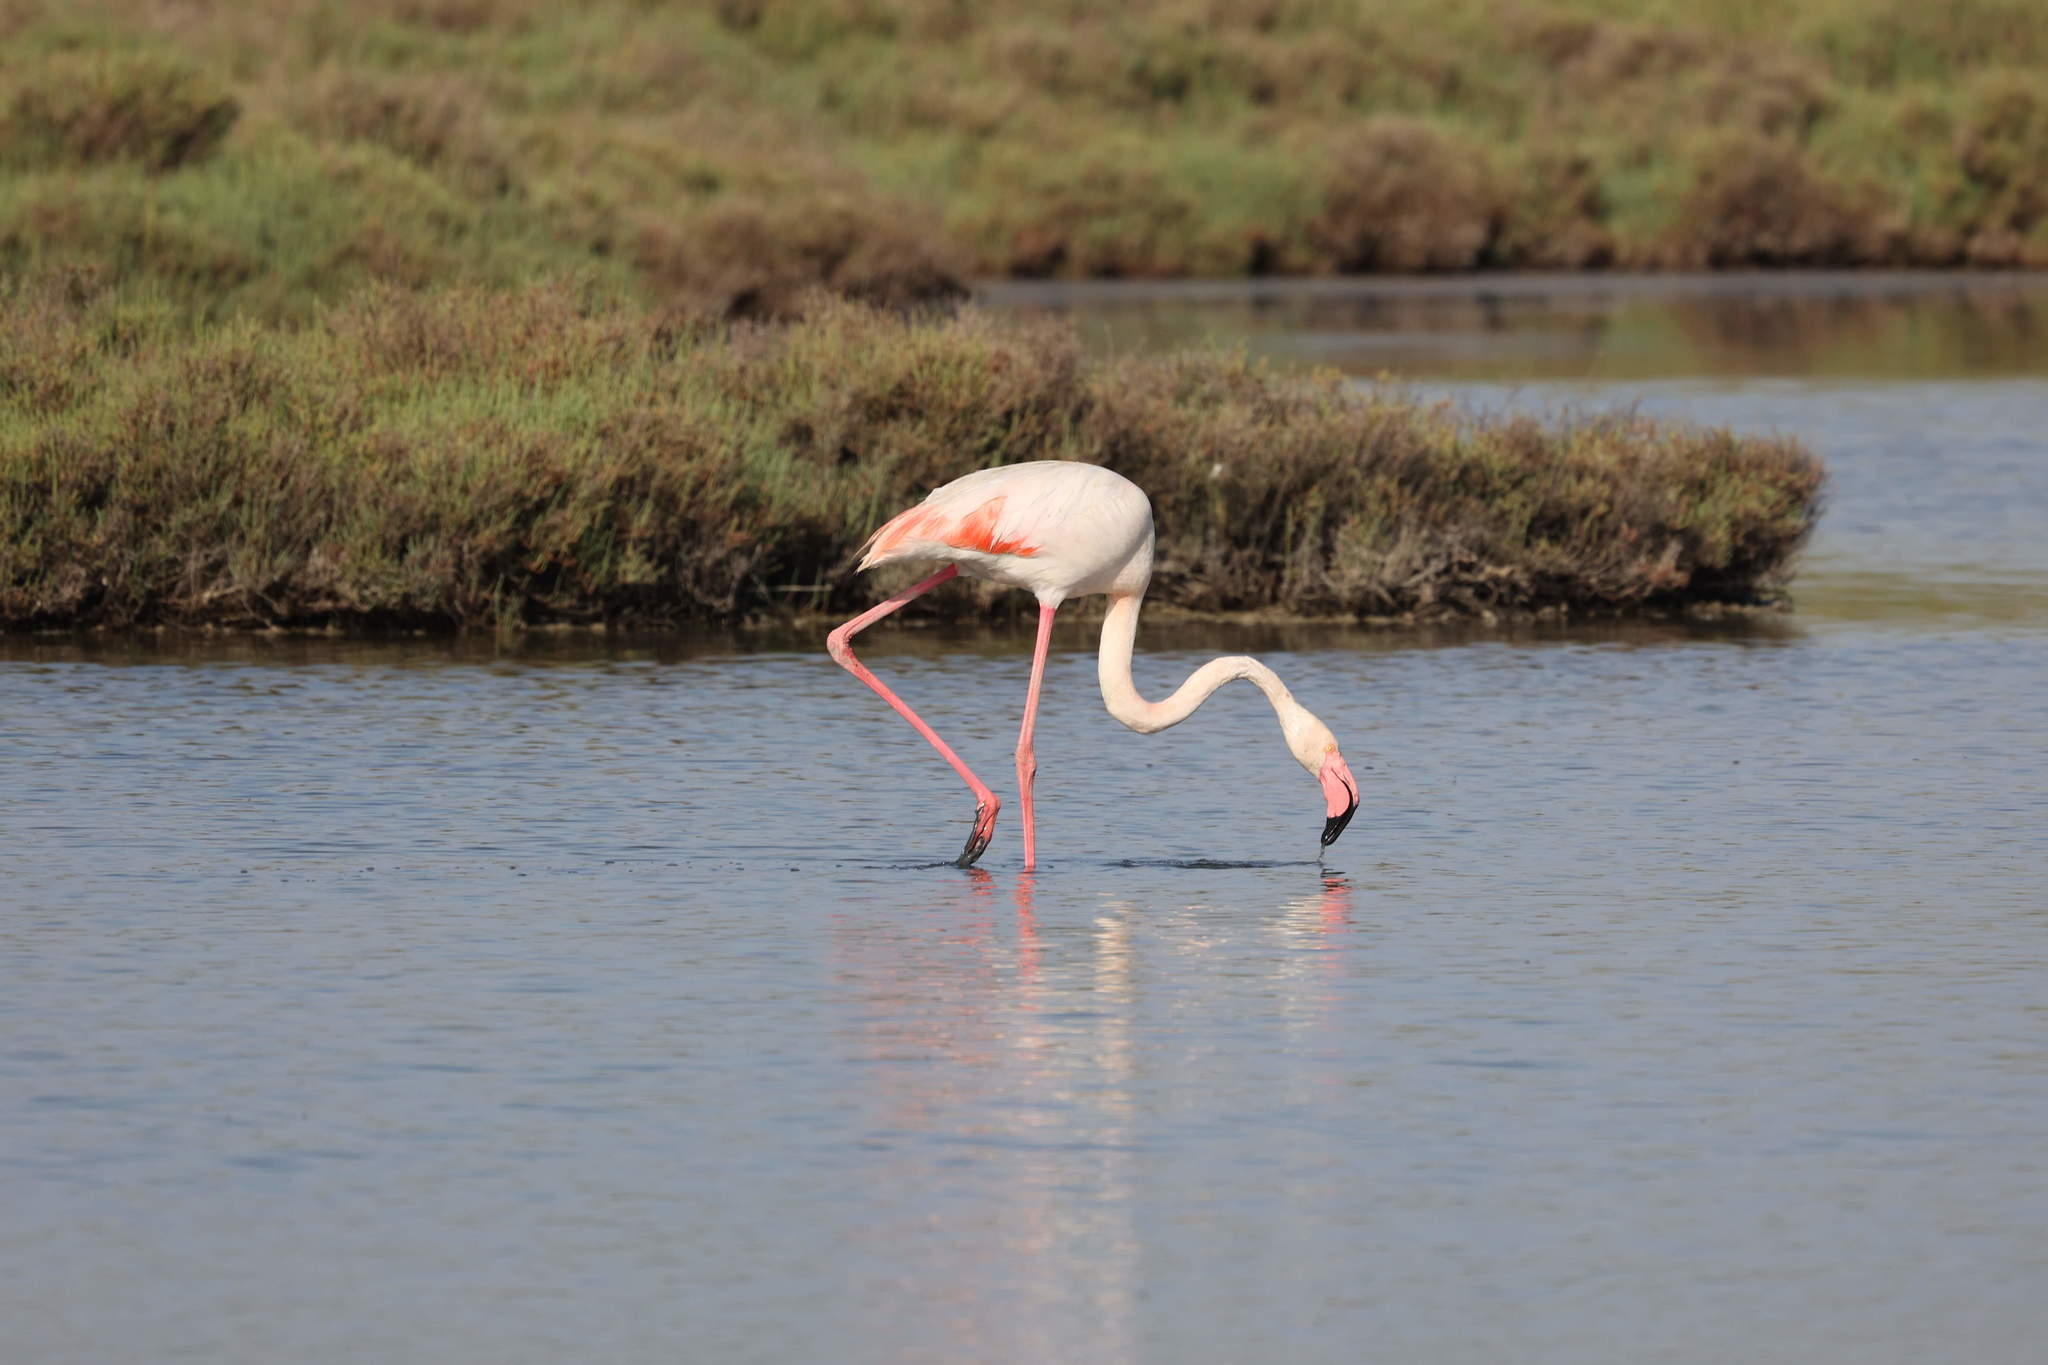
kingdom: Animalia
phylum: Chordata
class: Aves
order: Phoenicopteriformes
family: Phoenicopteridae
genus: Phoenicopterus
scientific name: Phoenicopterus roseus
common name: Greater flamingo
